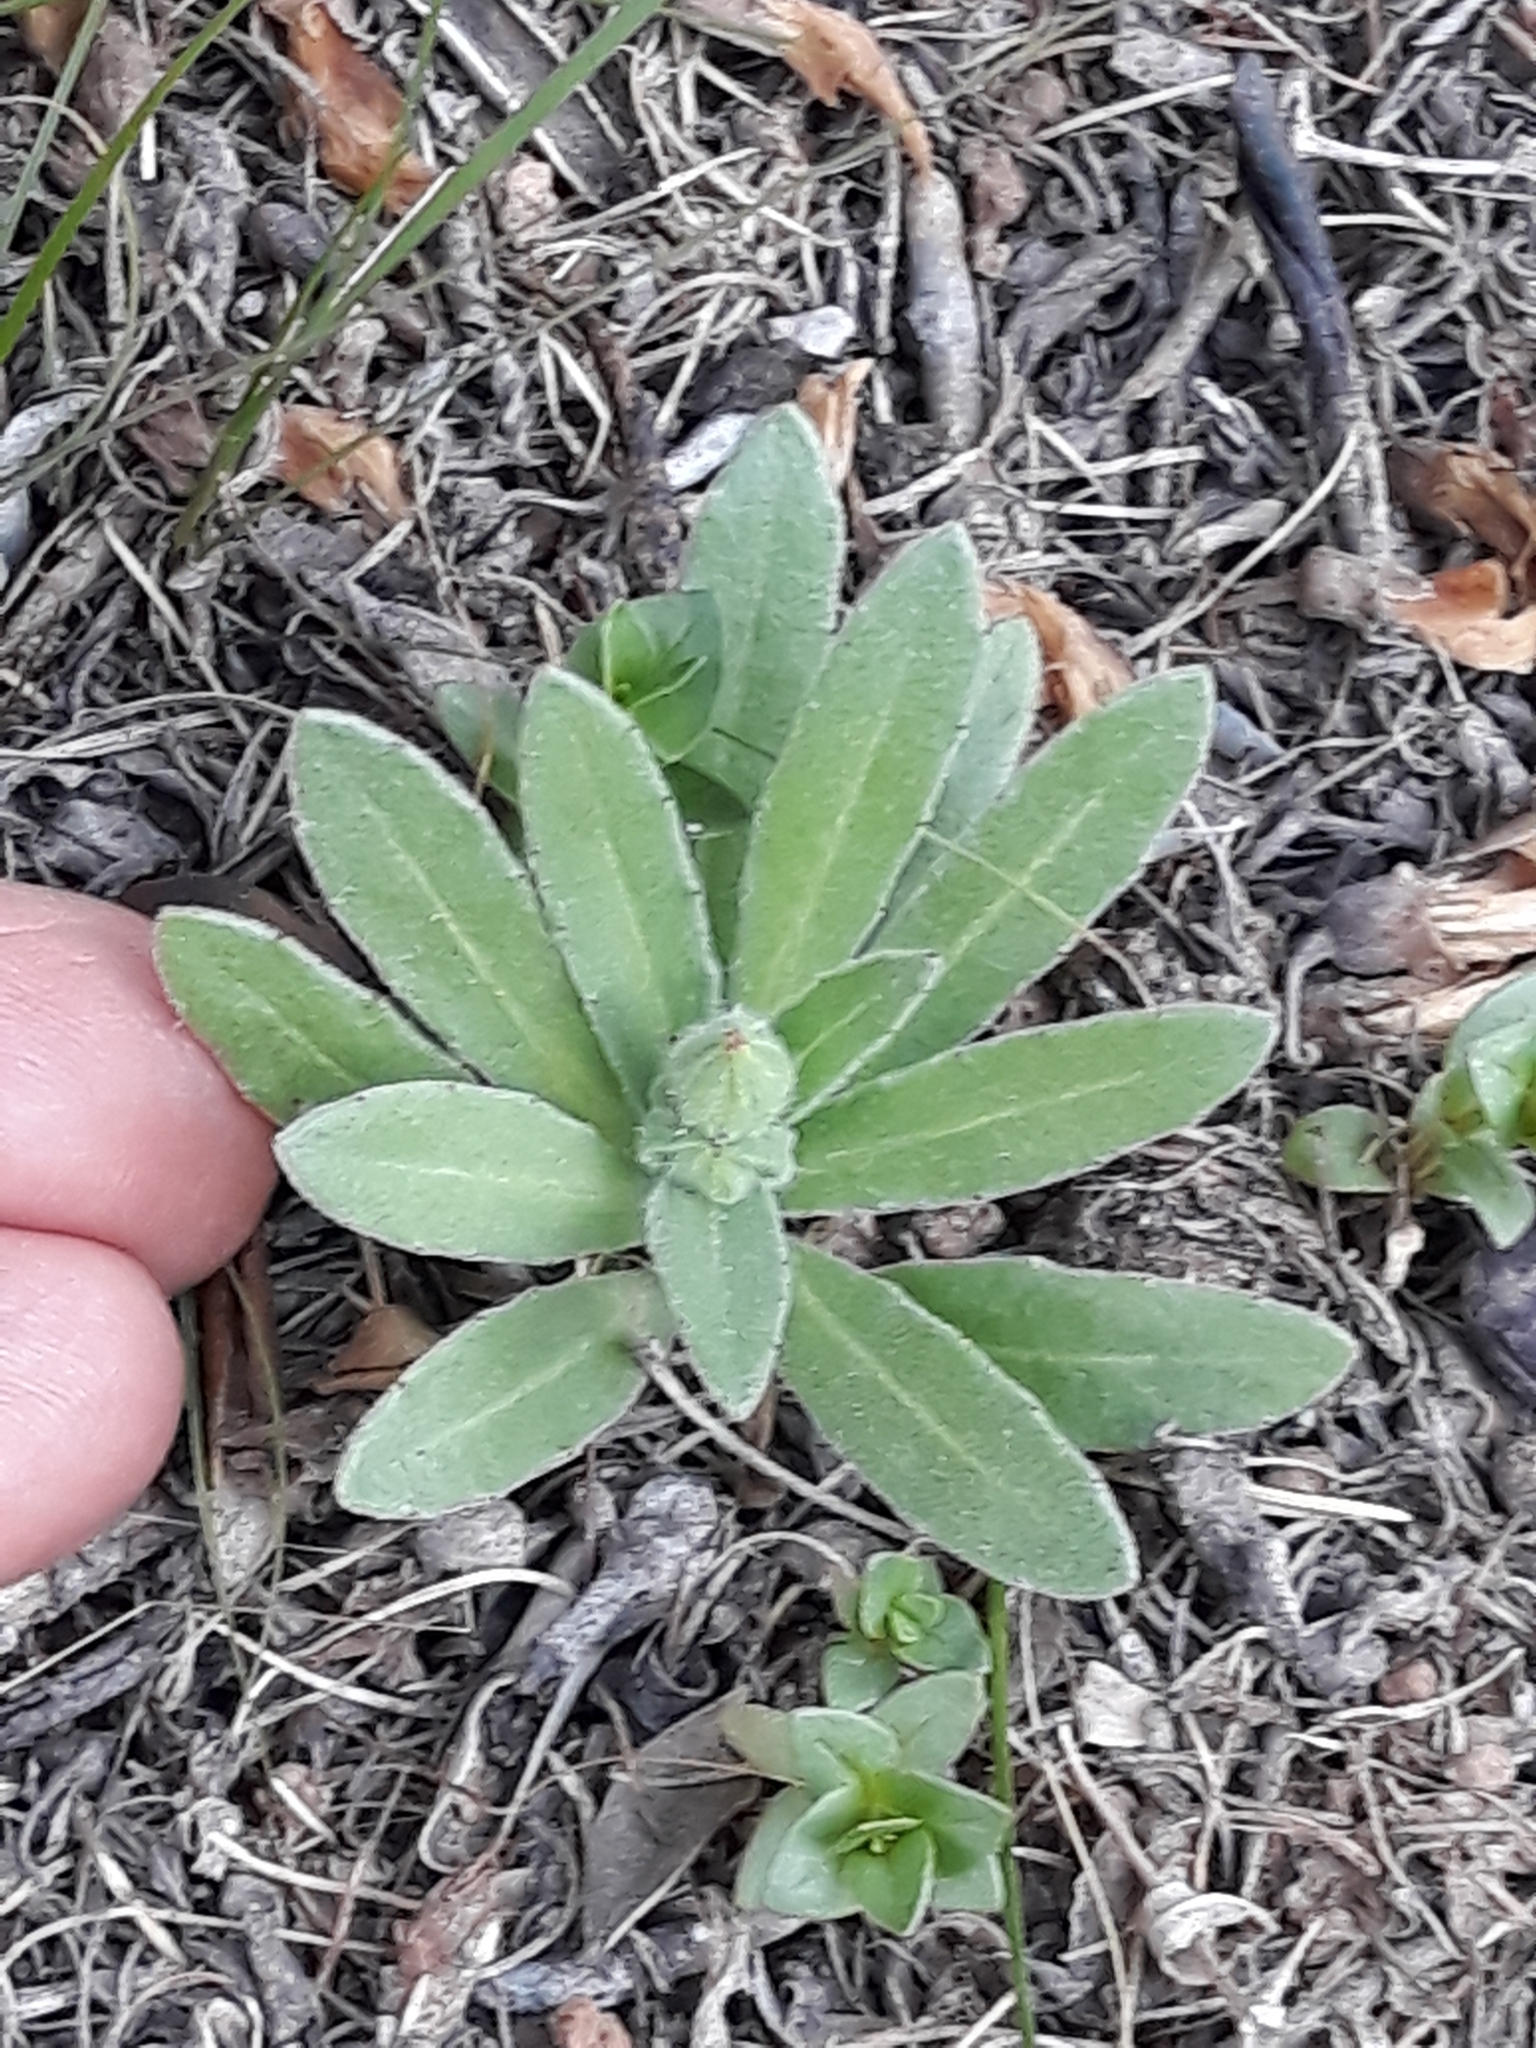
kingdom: Plantae
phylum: Tracheophyta
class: Magnoliopsida
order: Asterales
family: Asteraceae
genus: Calendula
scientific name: Calendula arvensis
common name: Field marigold
